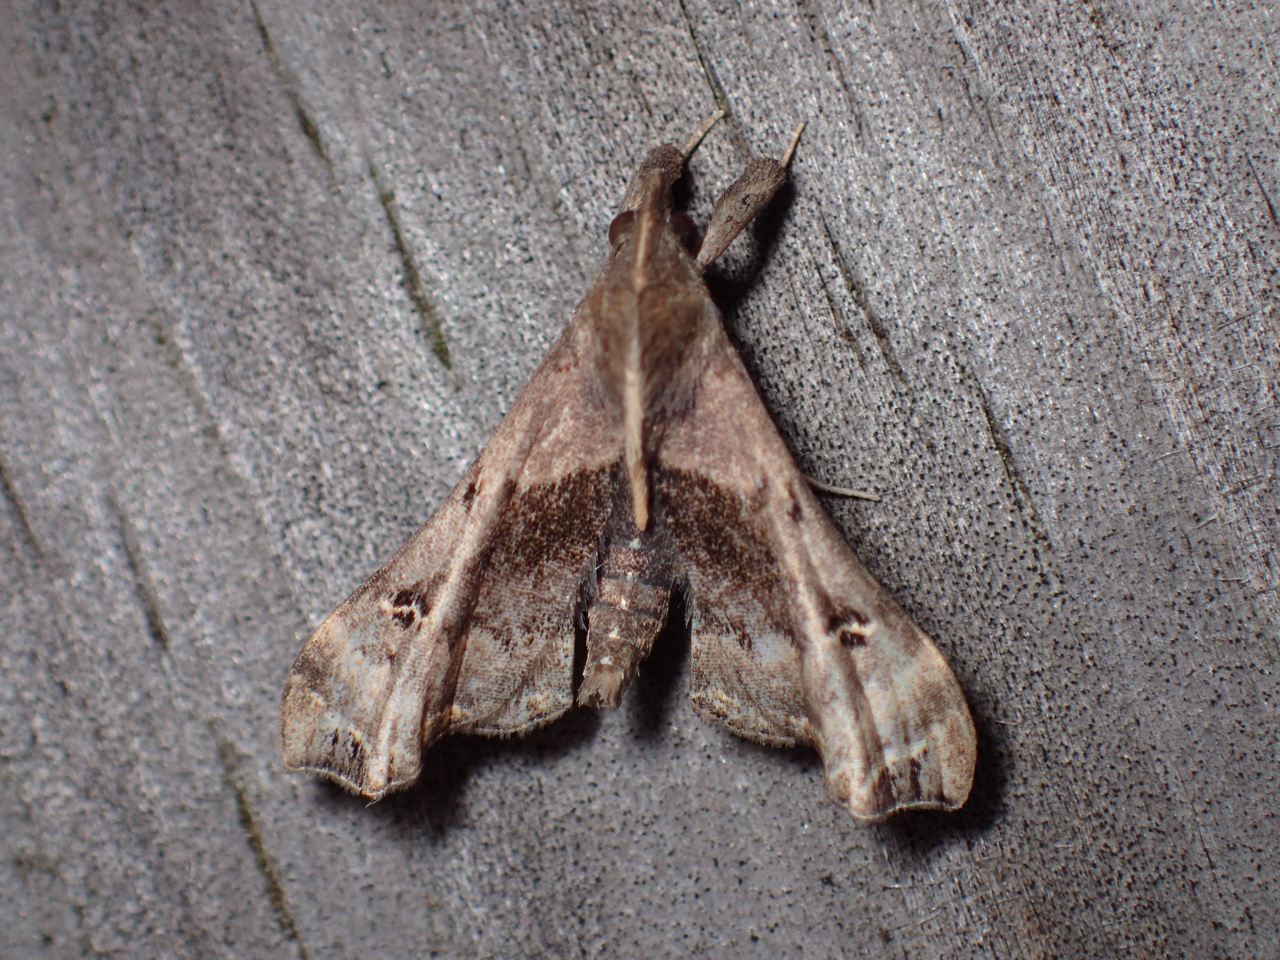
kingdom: Animalia
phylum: Arthropoda
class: Insecta
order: Lepidoptera
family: Erebidae
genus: Palthis
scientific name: Palthis asopialis
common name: Faint-spotted palthis moth
